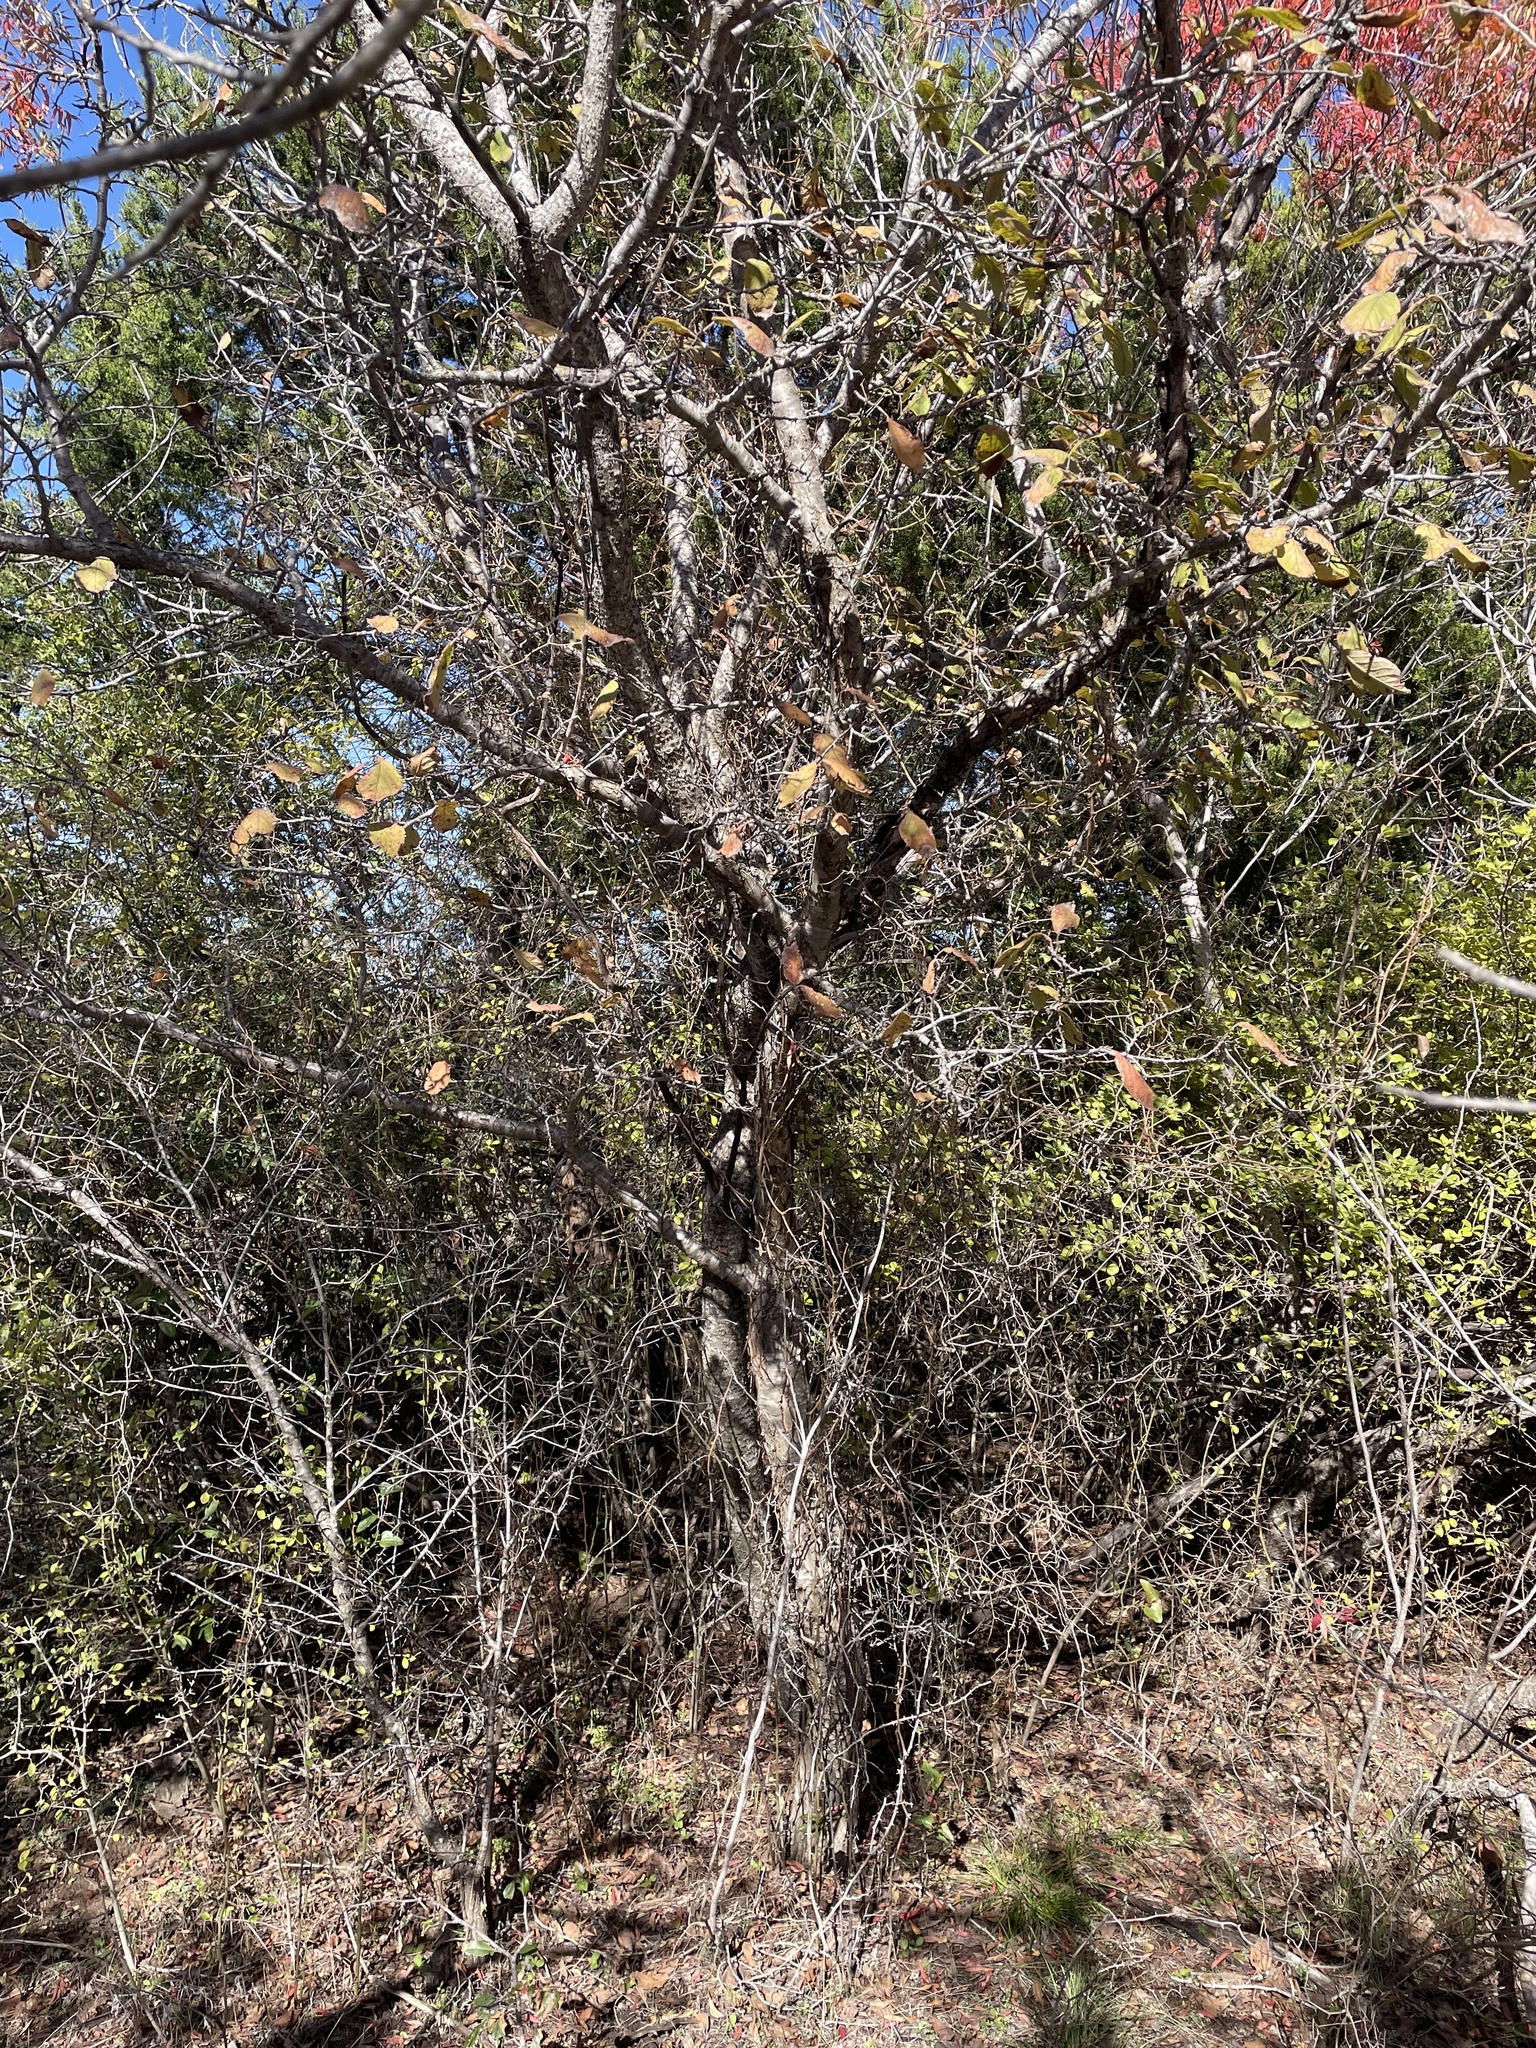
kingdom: Plantae
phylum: Tracheophyta
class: Magnoliopsida
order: Rosales
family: Rosaceae
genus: Prunus
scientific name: Prunus mexicana
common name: Mexican plum
